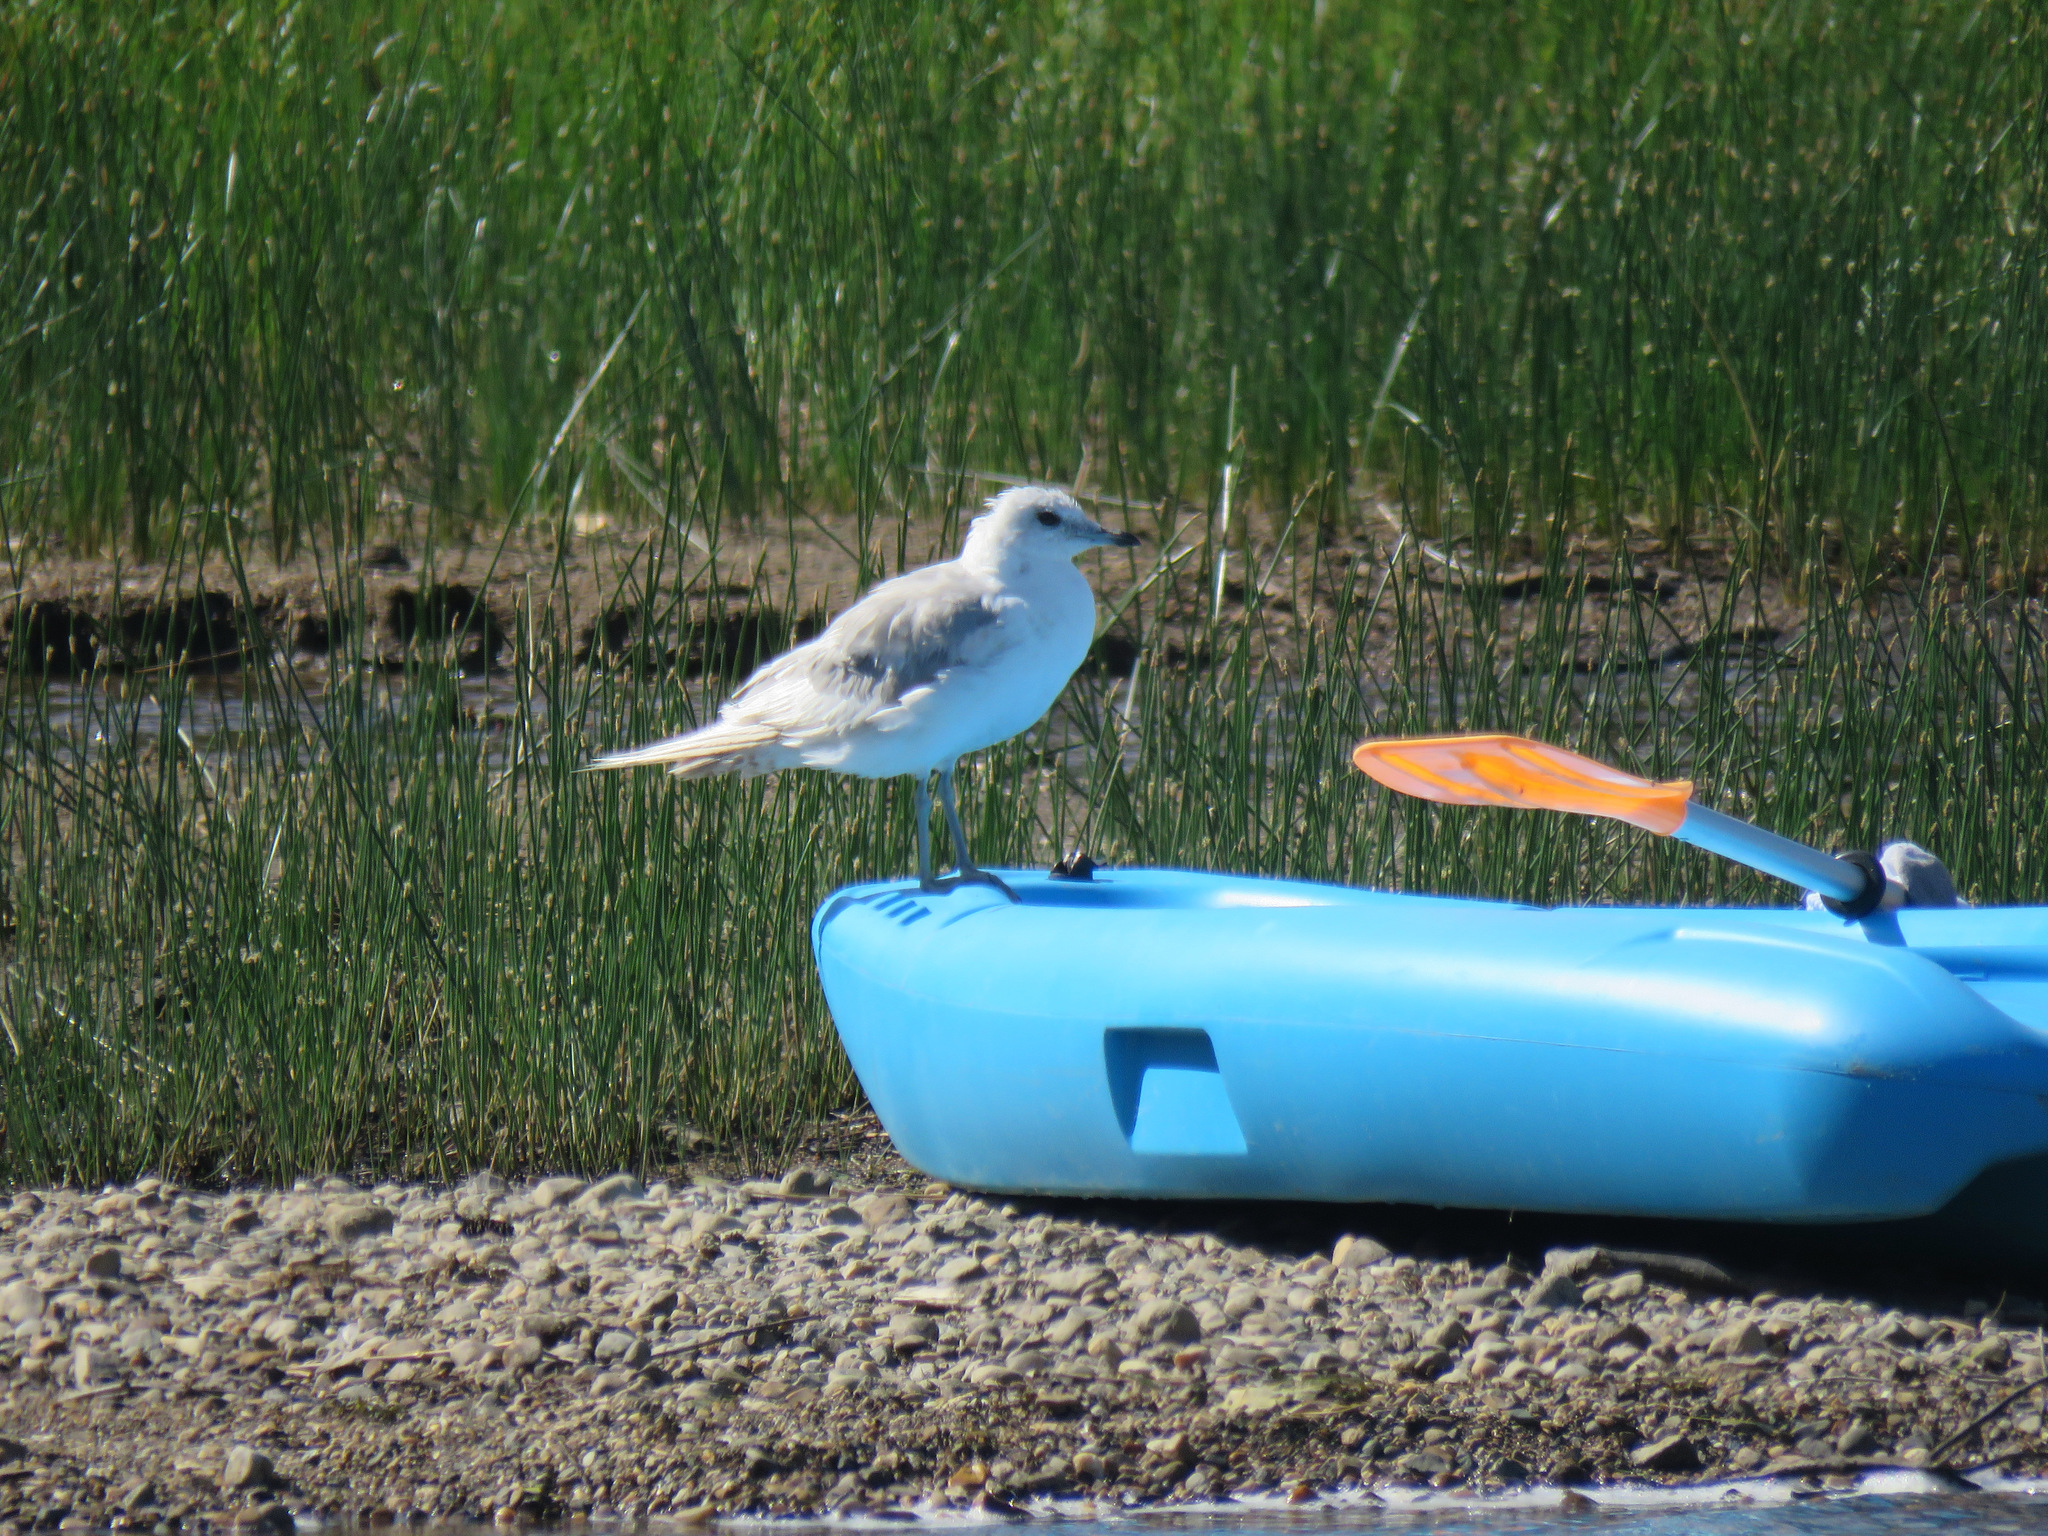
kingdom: Animalia
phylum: Chordata
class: Aves
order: Charadriiformes
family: Laridae
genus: Larus
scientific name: Larus brachyrhynchus
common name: Short-billed gull
